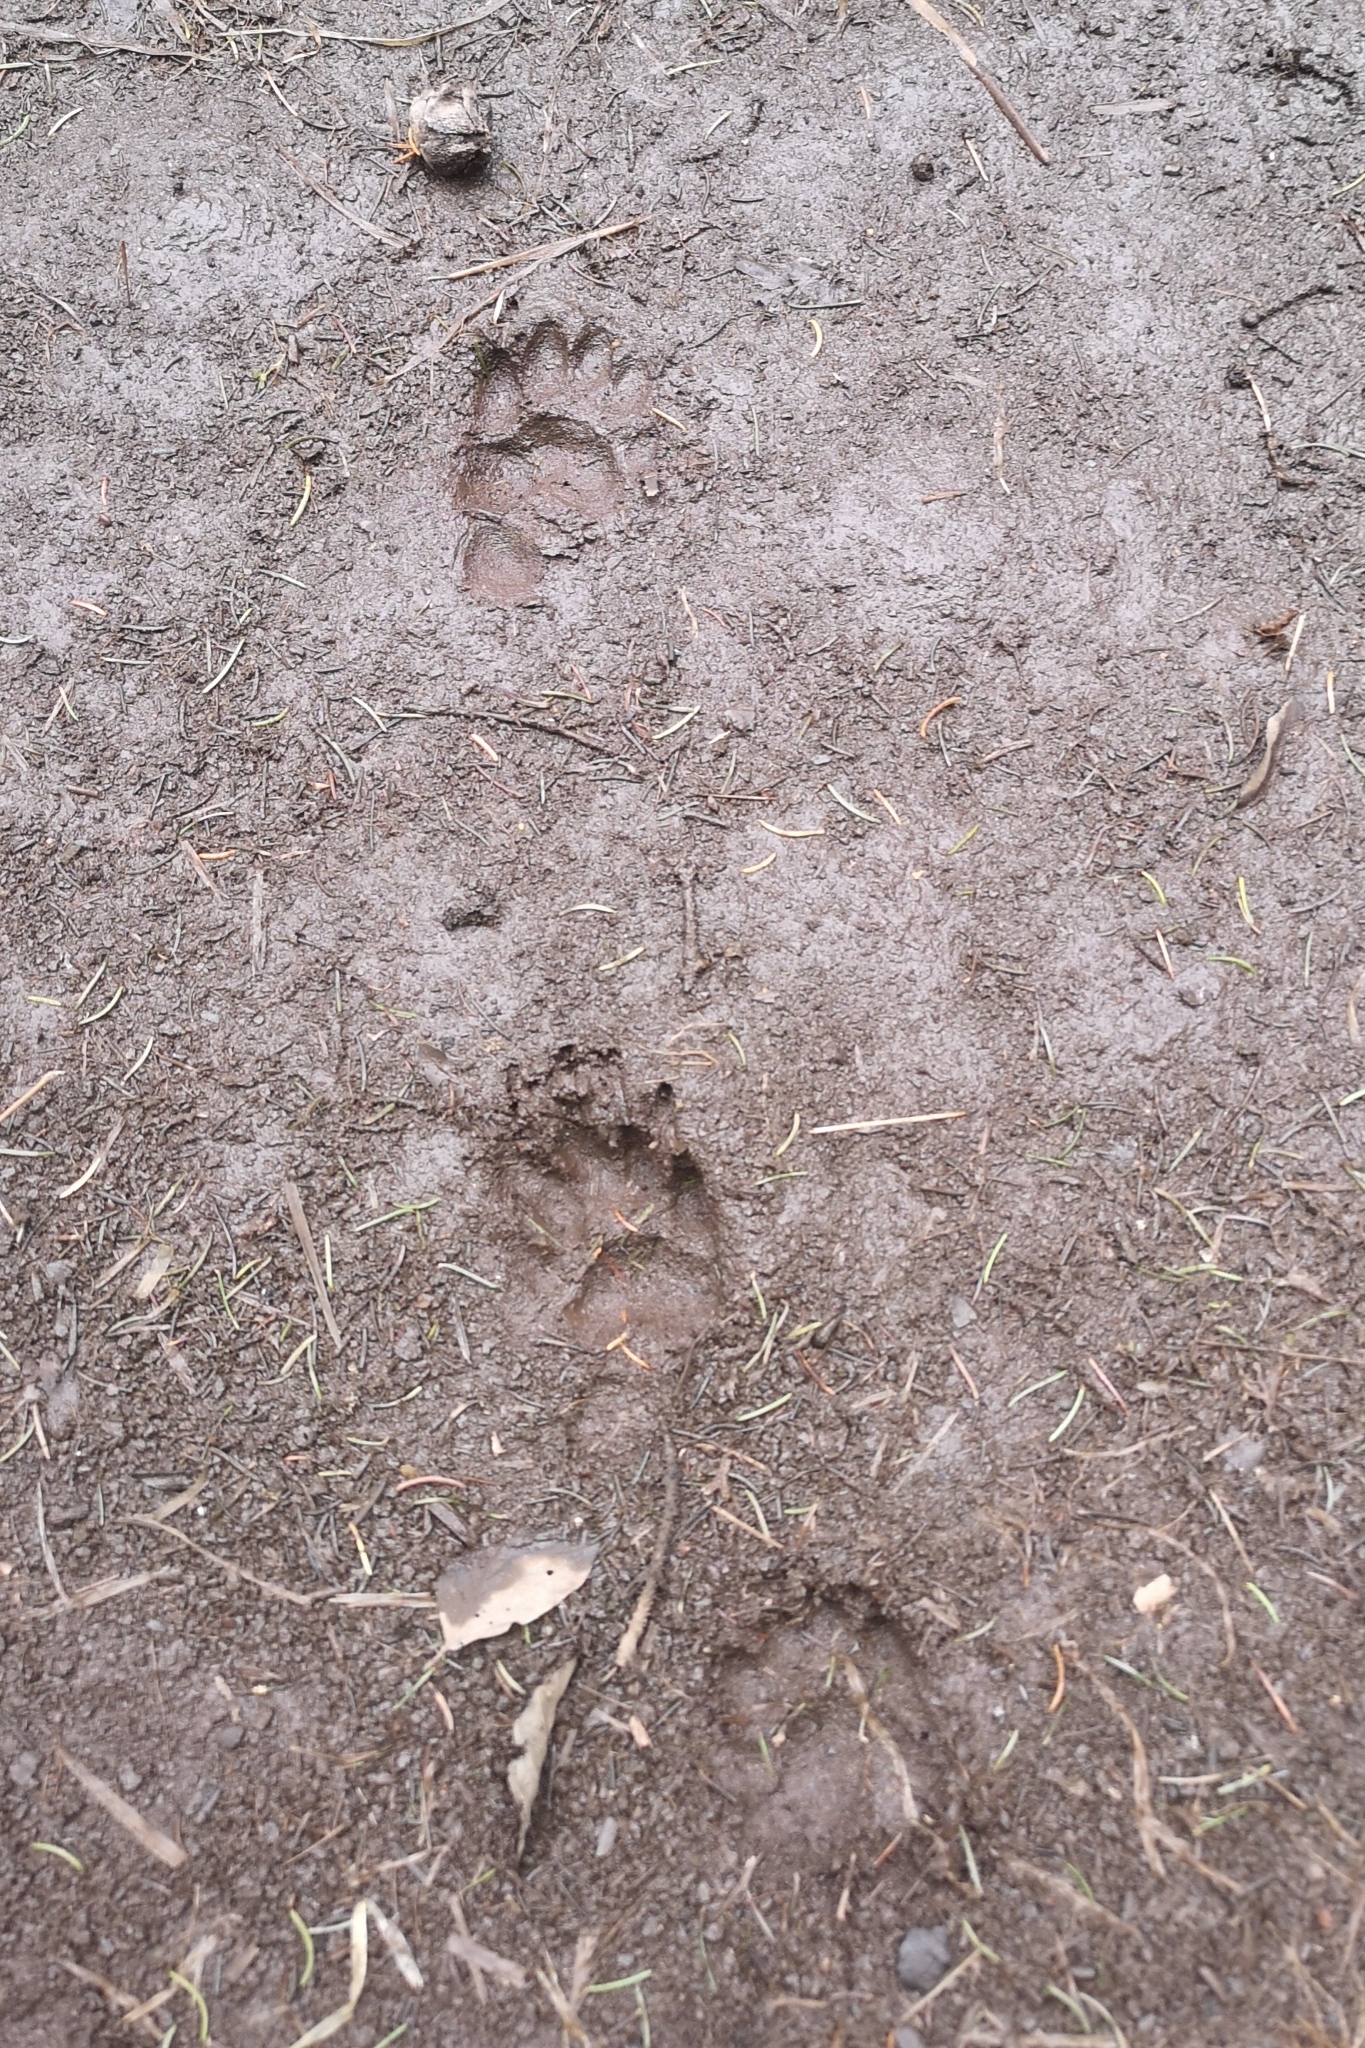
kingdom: Animalia
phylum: Chordata
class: Mammalia
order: Carnivora
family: Mustelidae
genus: Meles
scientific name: Meles meles
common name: Eurasian badger
